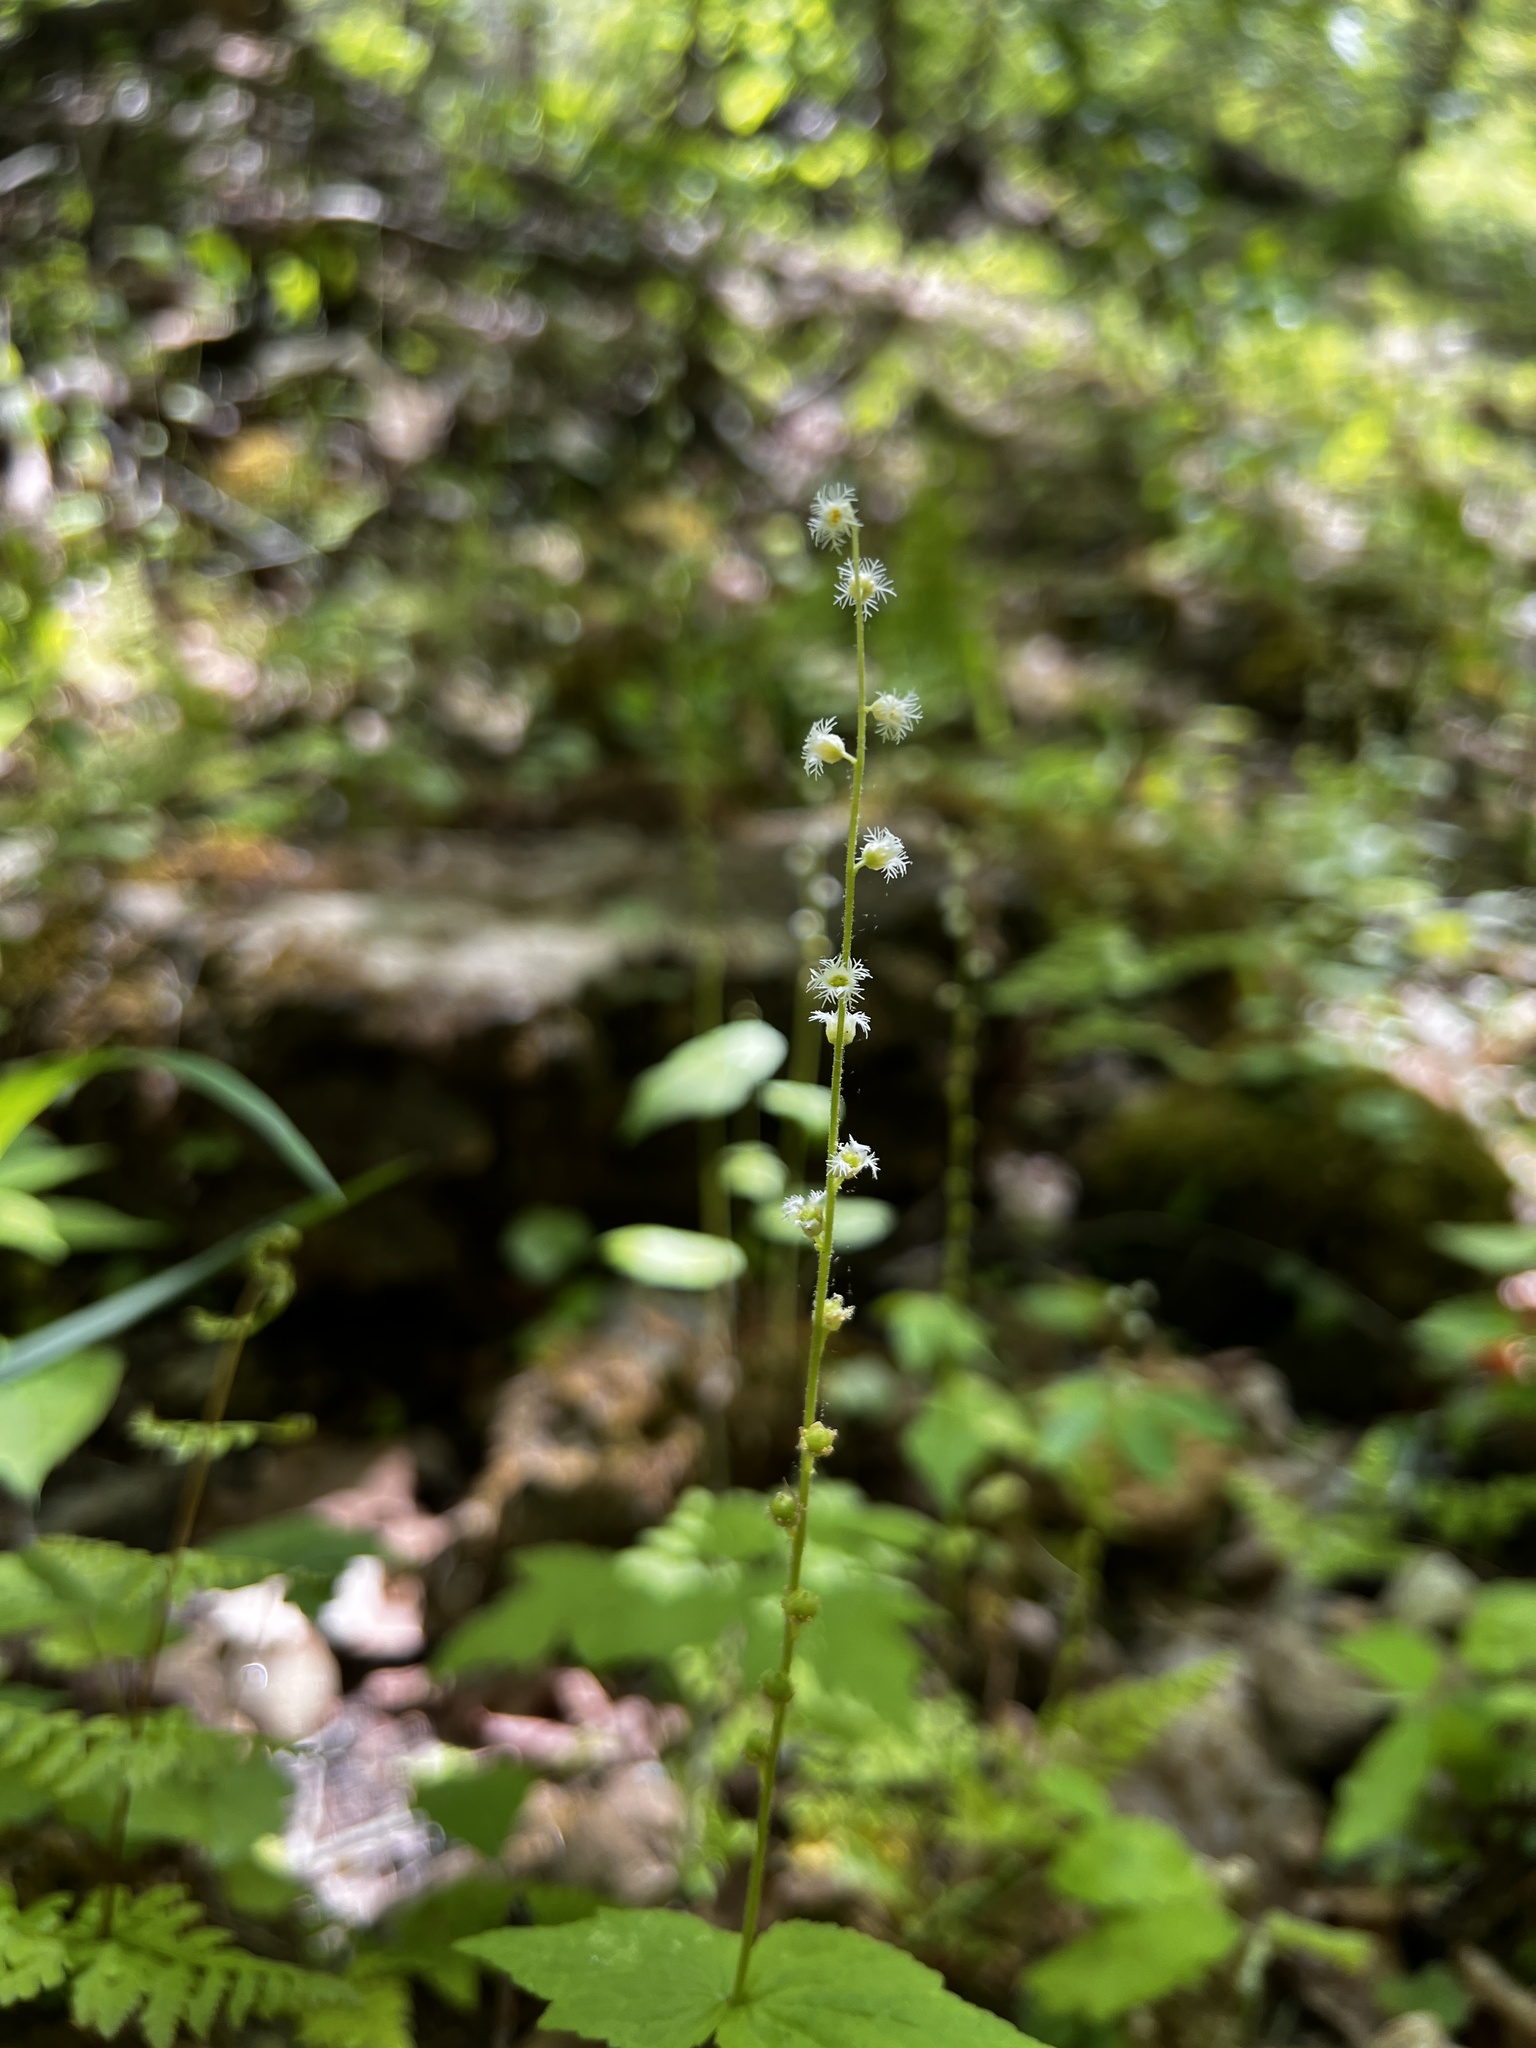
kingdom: Plantae
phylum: Tracheophyta
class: Magnoliopsida
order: Saxifragales
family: Saxifragaceae
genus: Mitella
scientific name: Mitella diphylla
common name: Coolwort
